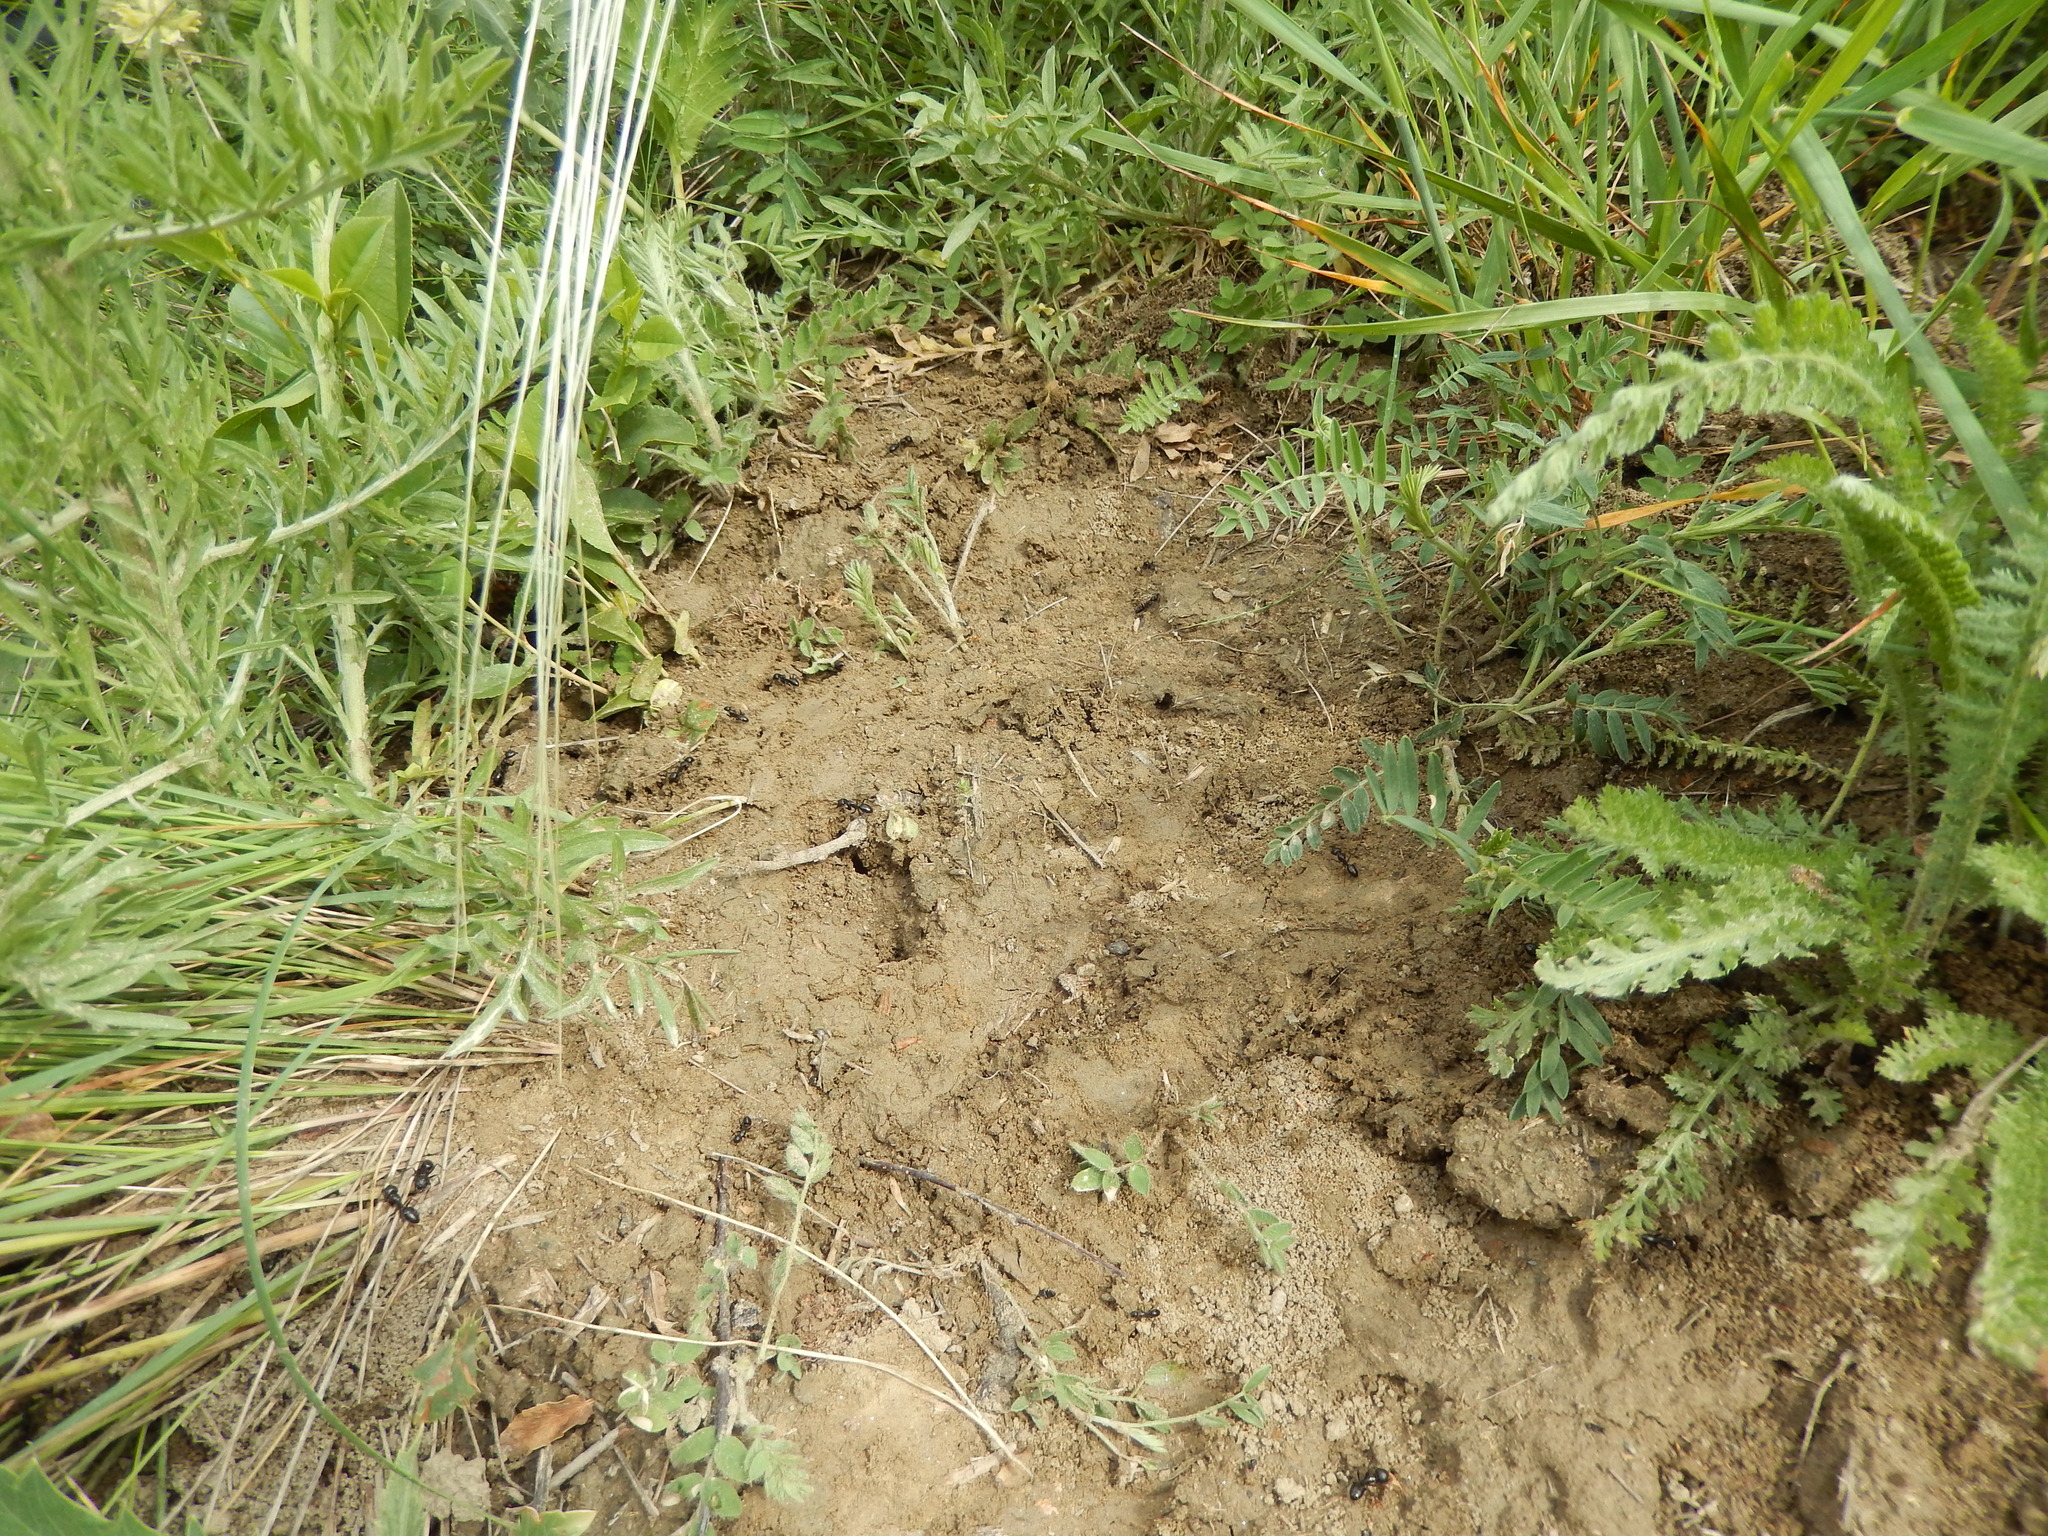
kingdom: Animalia
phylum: Arthropoda
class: Insecta
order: Hymenoptera
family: Formicidae
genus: Camponotus
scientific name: Camponotus aethiops
